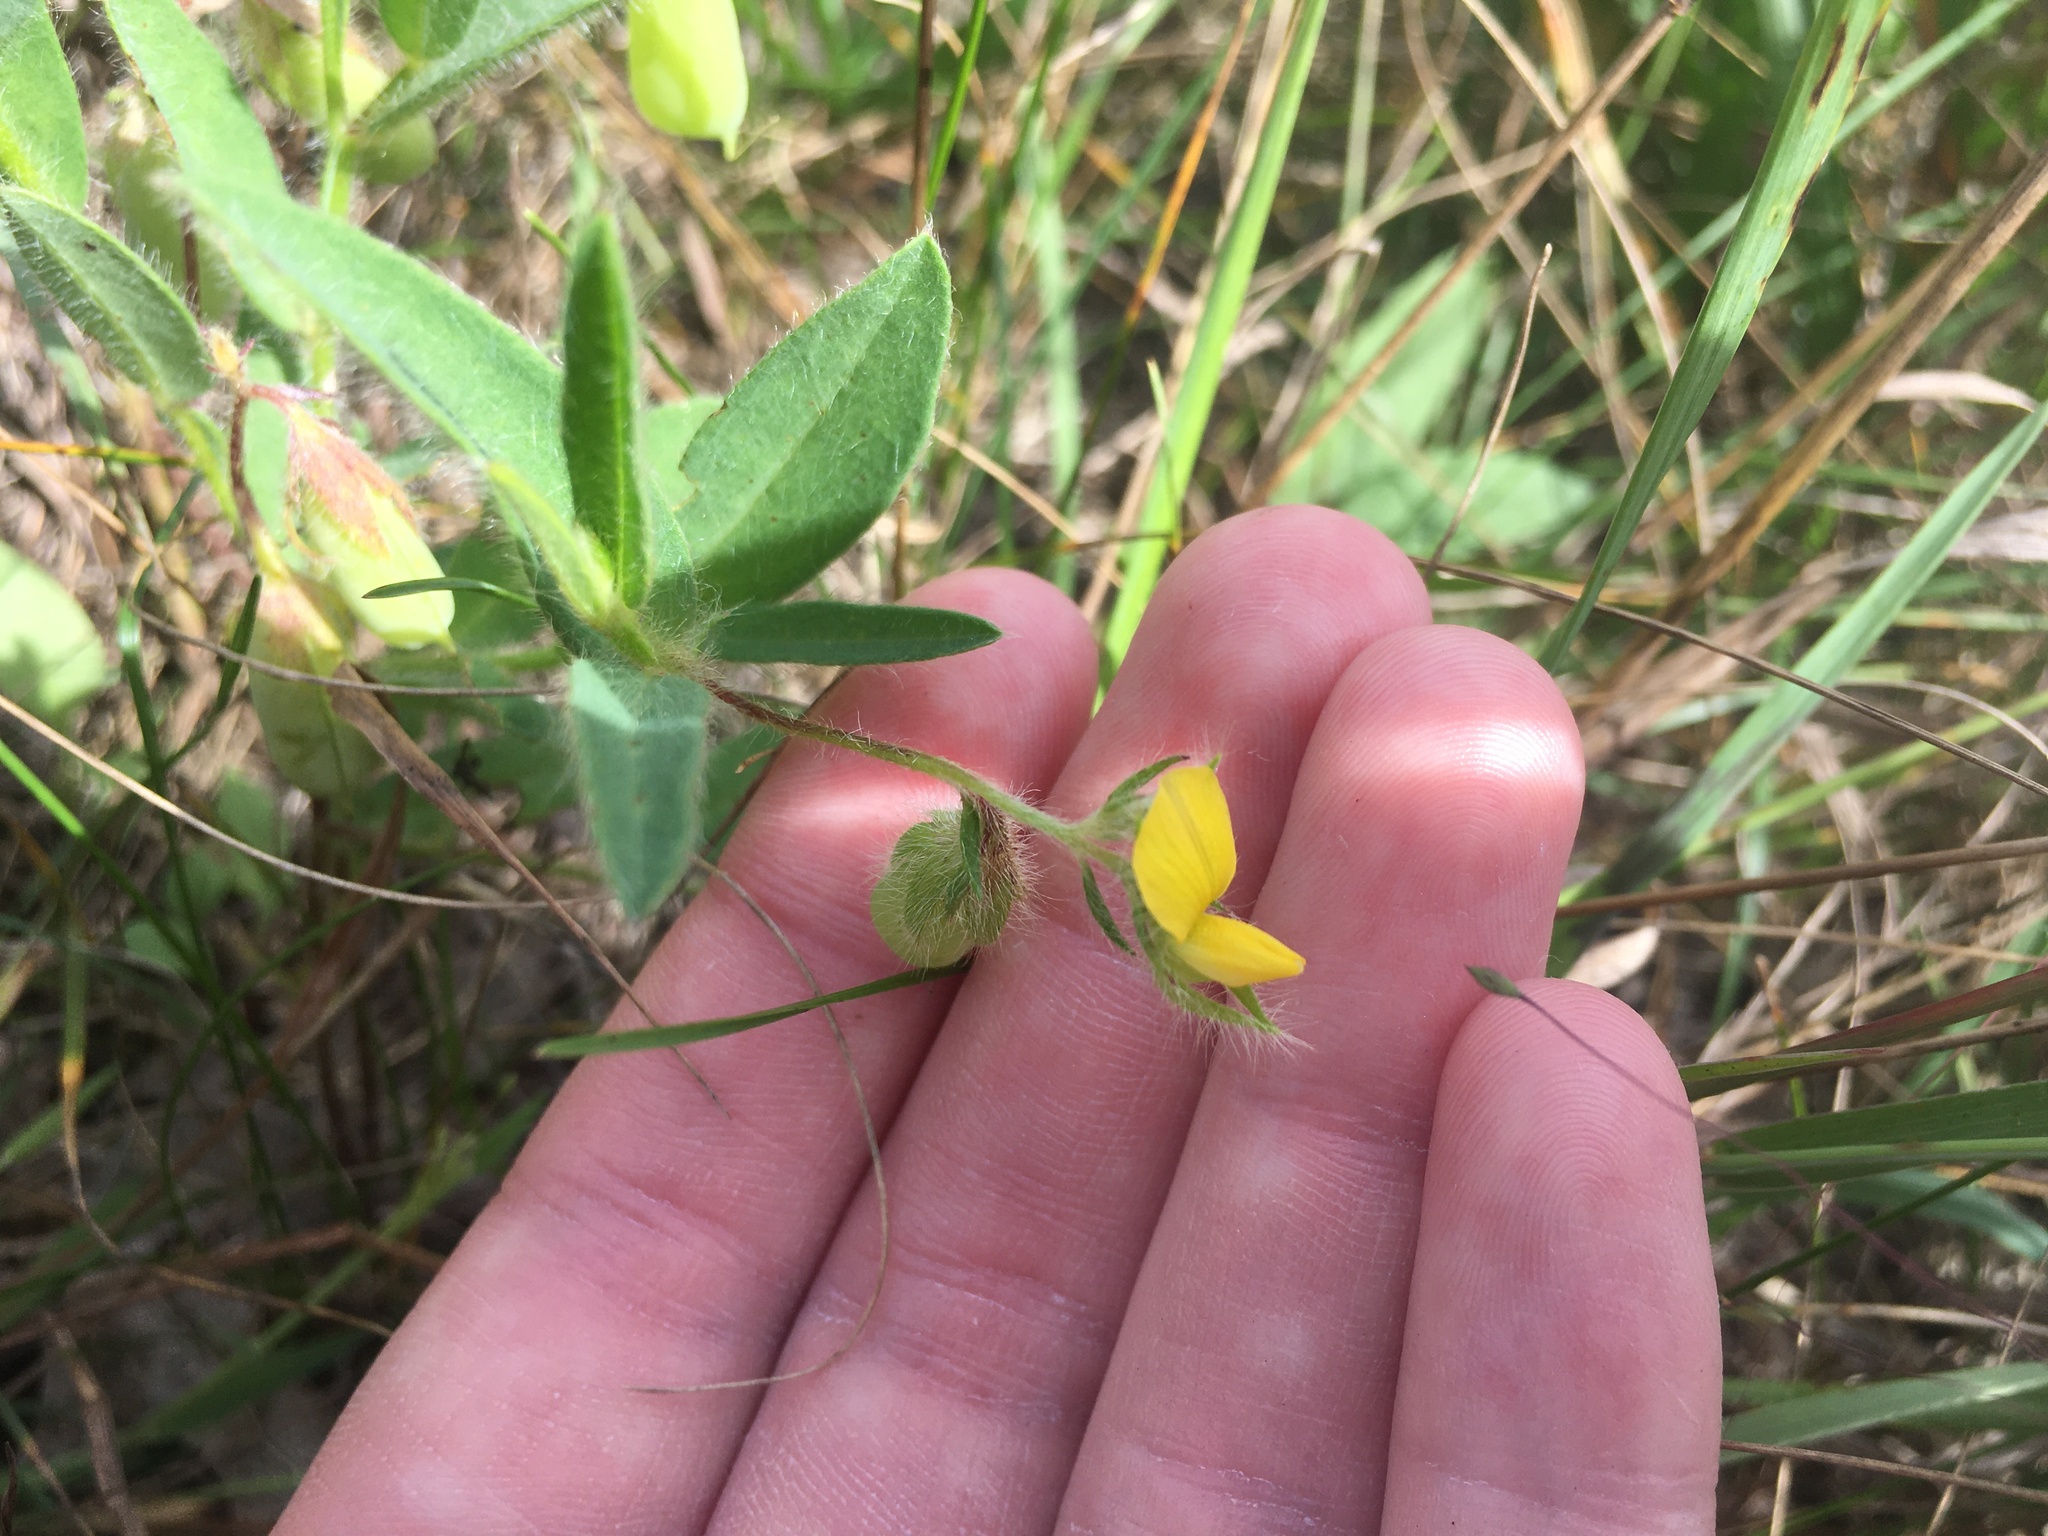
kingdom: Plantae
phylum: Tracheophyta
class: Magnoliopsida
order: Fabales
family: Fabaceae
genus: Crotalaria
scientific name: Crotalaria sagittalis
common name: Arrowhead rattlebox
